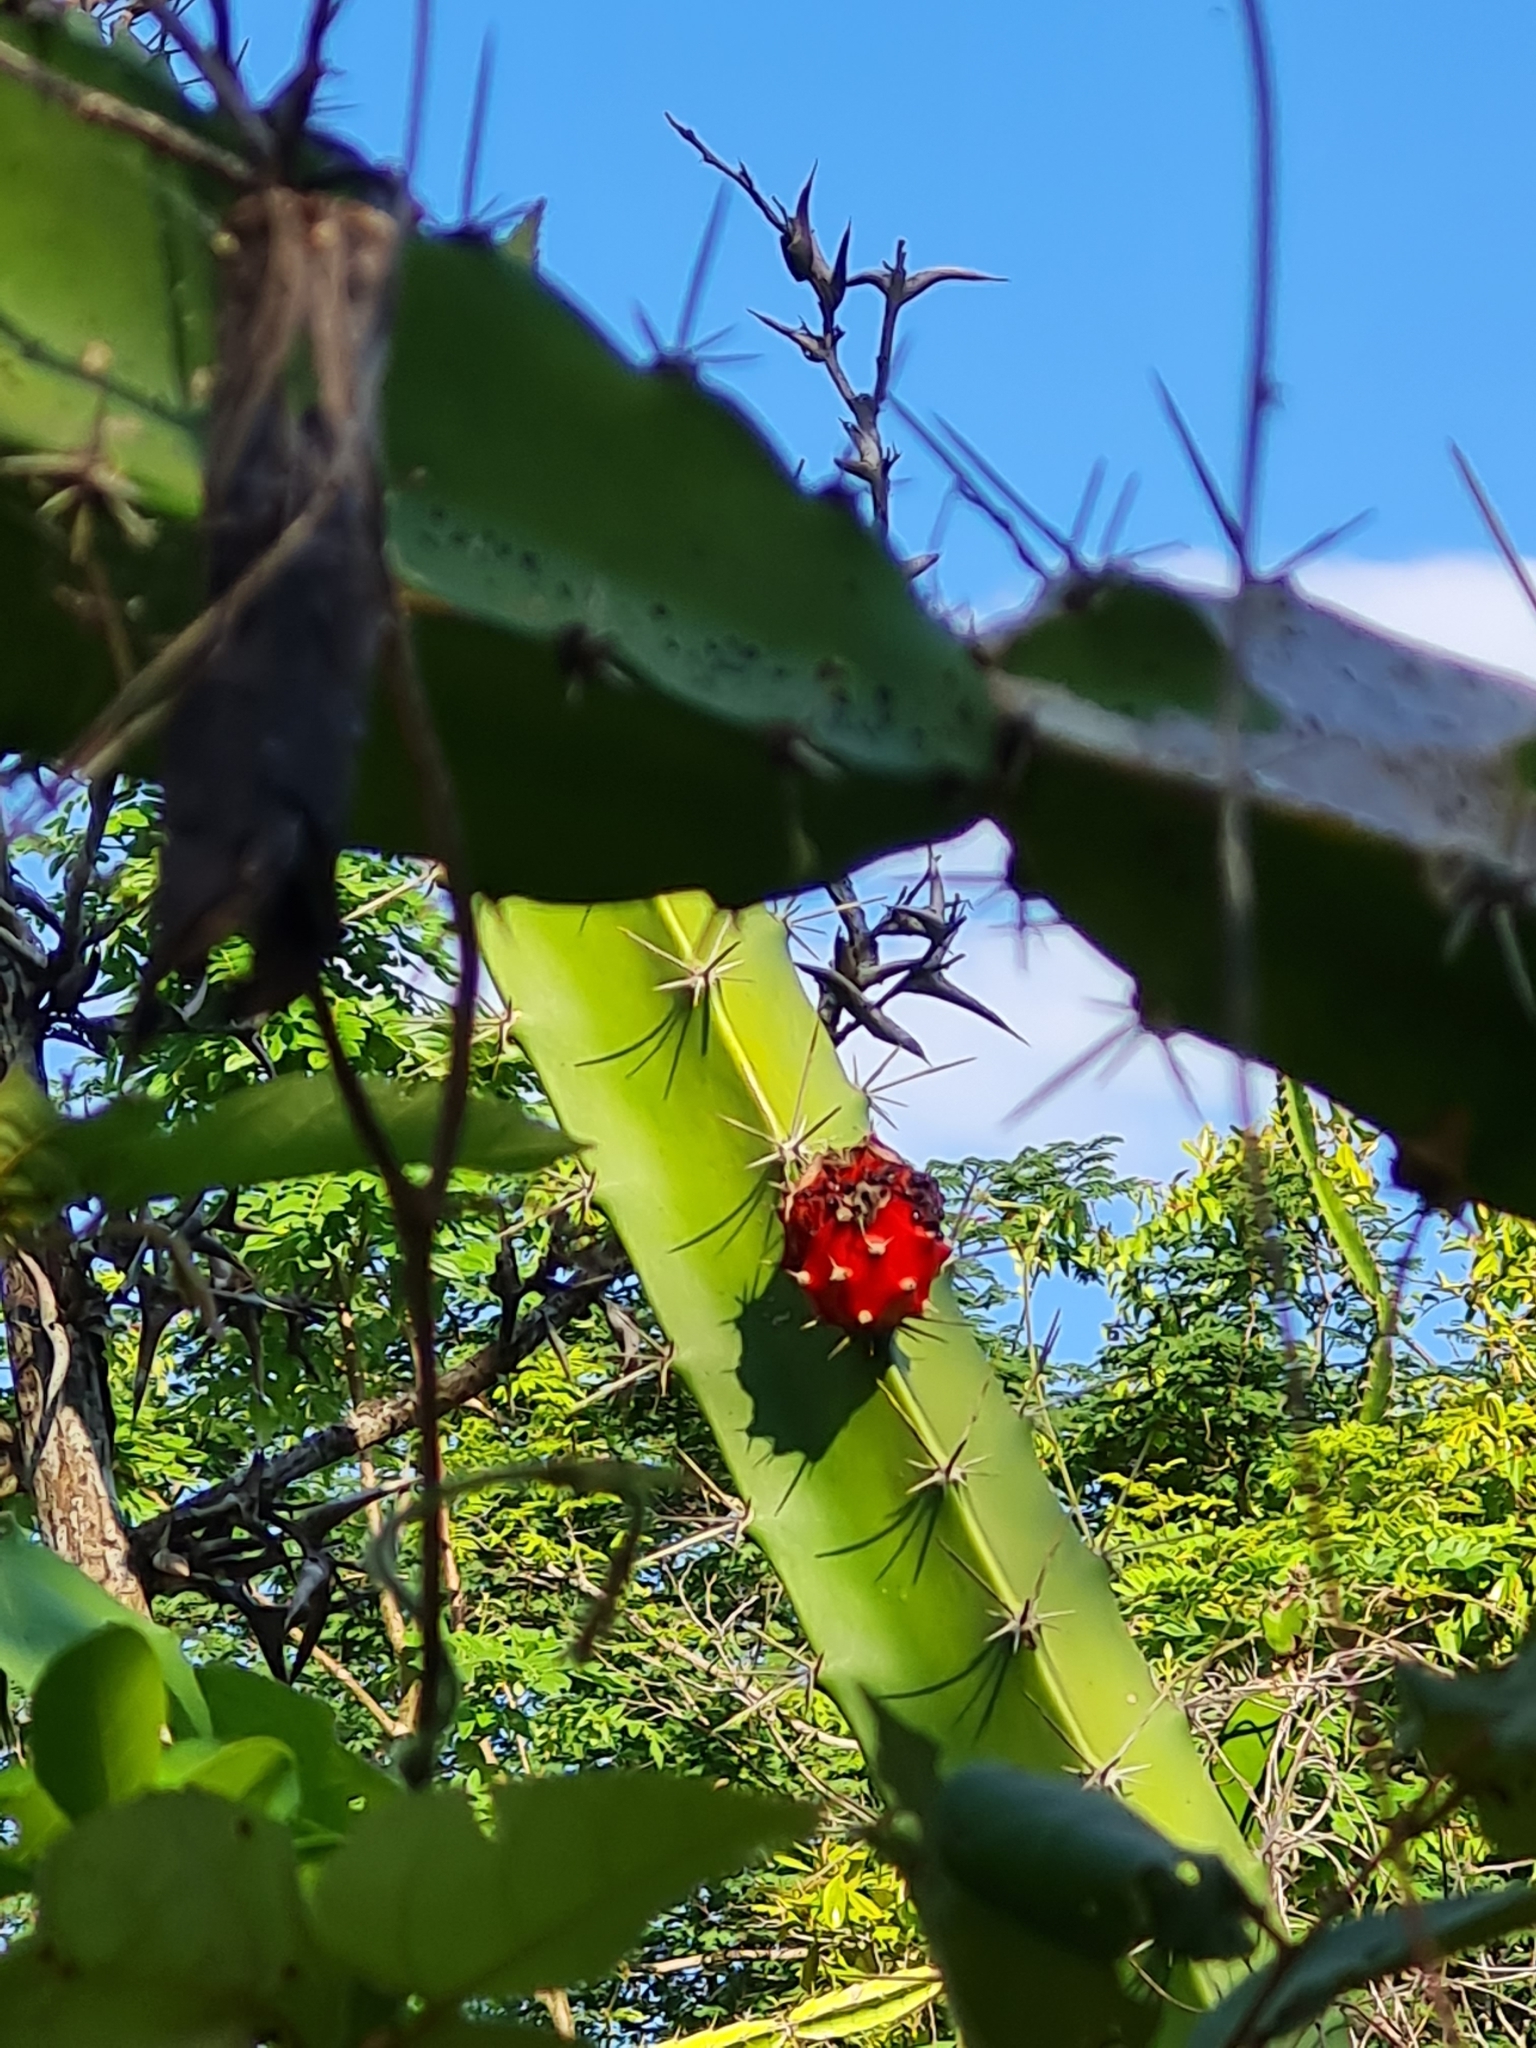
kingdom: Plantae
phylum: Tracheophyta
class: Magnoliopsida
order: Caryophyllales
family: Cactaceae
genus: Acanthocereus
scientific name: Acanthocereus tetragonus
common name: Triangle cactus
